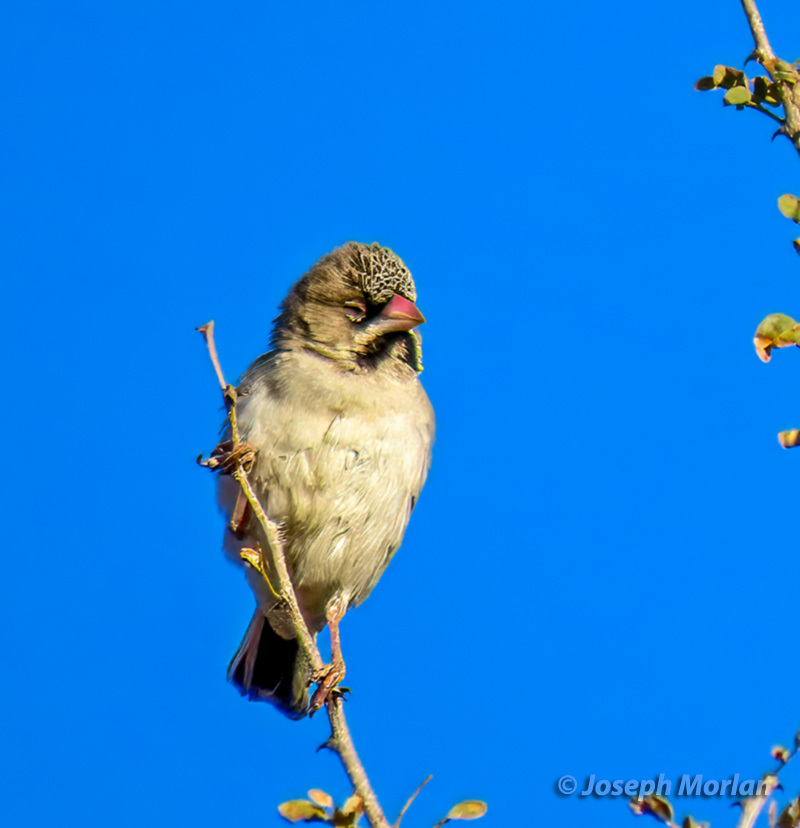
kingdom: Animalia
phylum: Chordata
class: Aves
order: Passeriformes
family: Ploceidae
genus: Sporopipes
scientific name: Sporopipes squamifrons
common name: Scaly-feathered weaver
